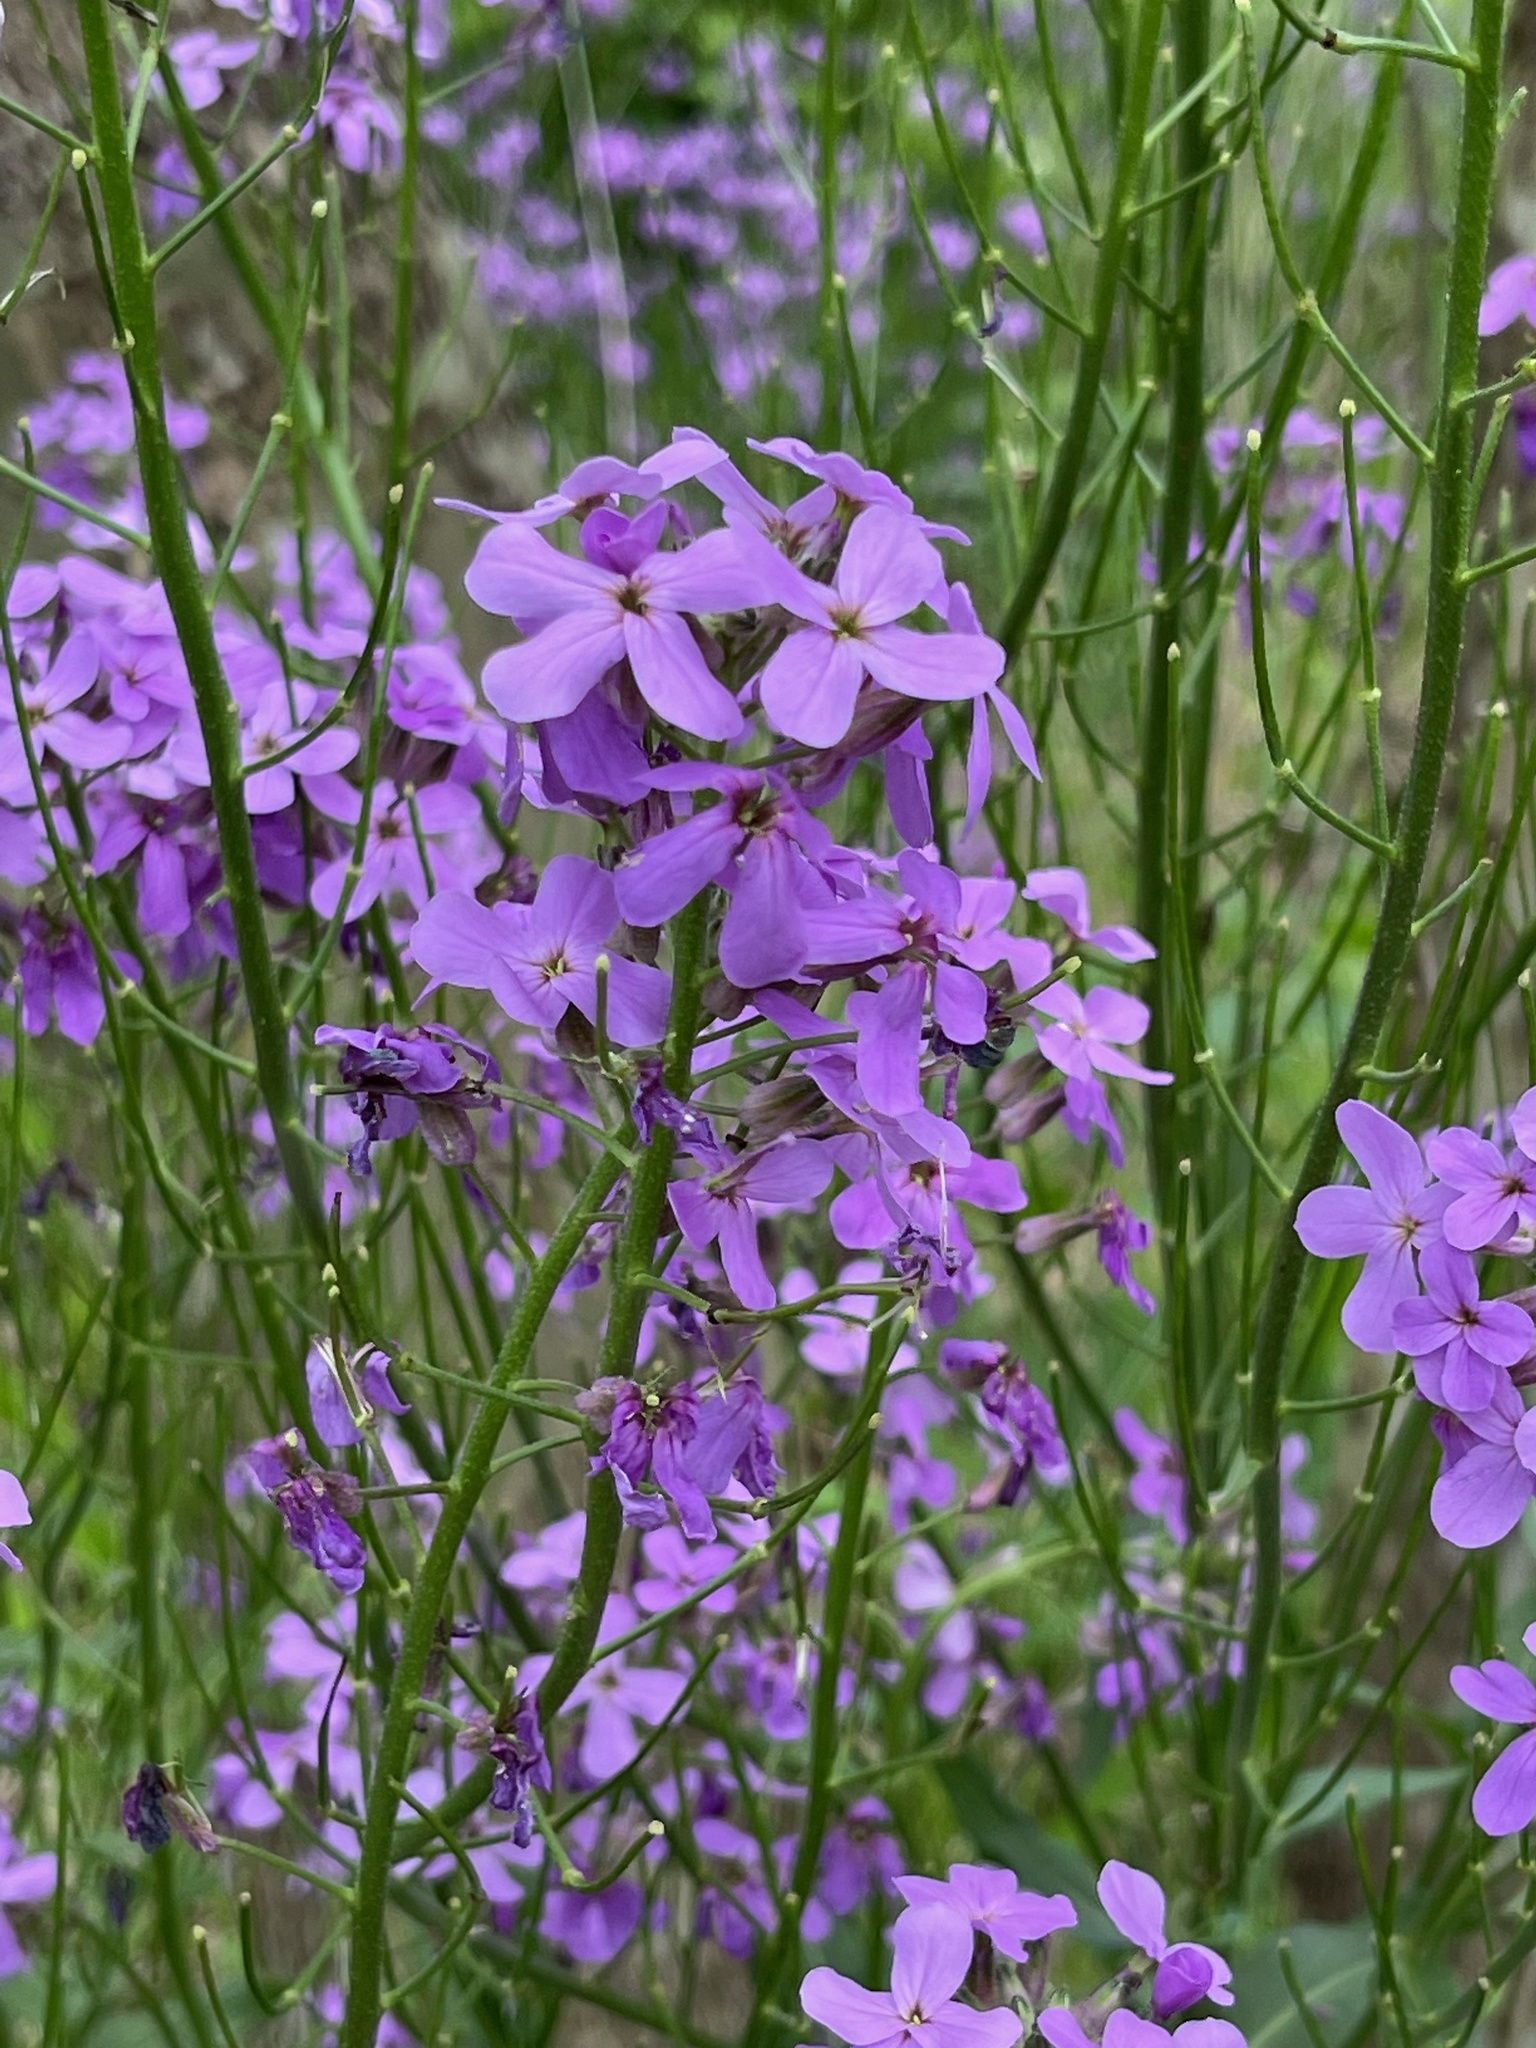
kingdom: Plantae
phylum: Tracheophyta
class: Magnoliopsida
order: Brassicales
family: Brassicaceae
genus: Hesperis
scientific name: Hesperis matronalis
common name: Dame's-violet
